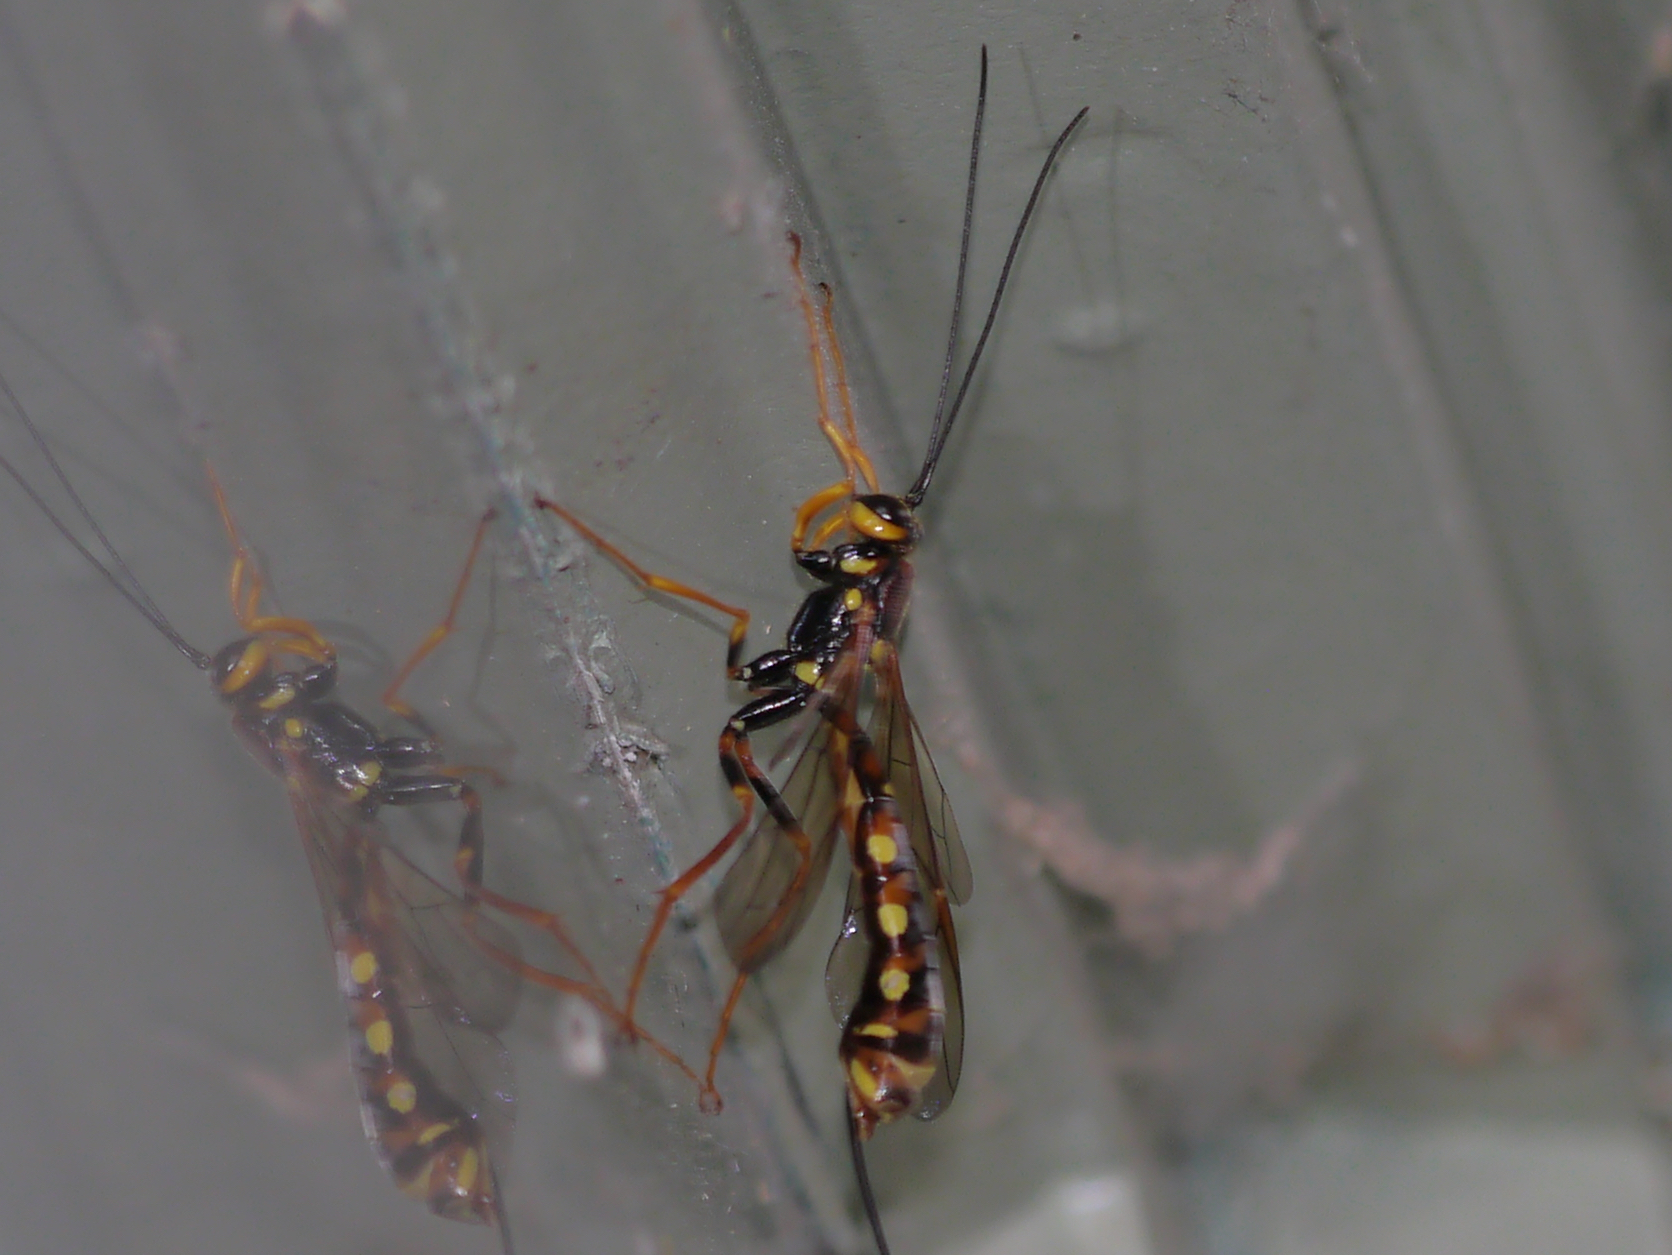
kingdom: Animalia
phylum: Arthropoda
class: Insecta
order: Hymenoptera
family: Ichneumonidae
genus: Megarhyssa
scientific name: Megarhyssa nortoni
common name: Norton's giant ichneumonid wasp
